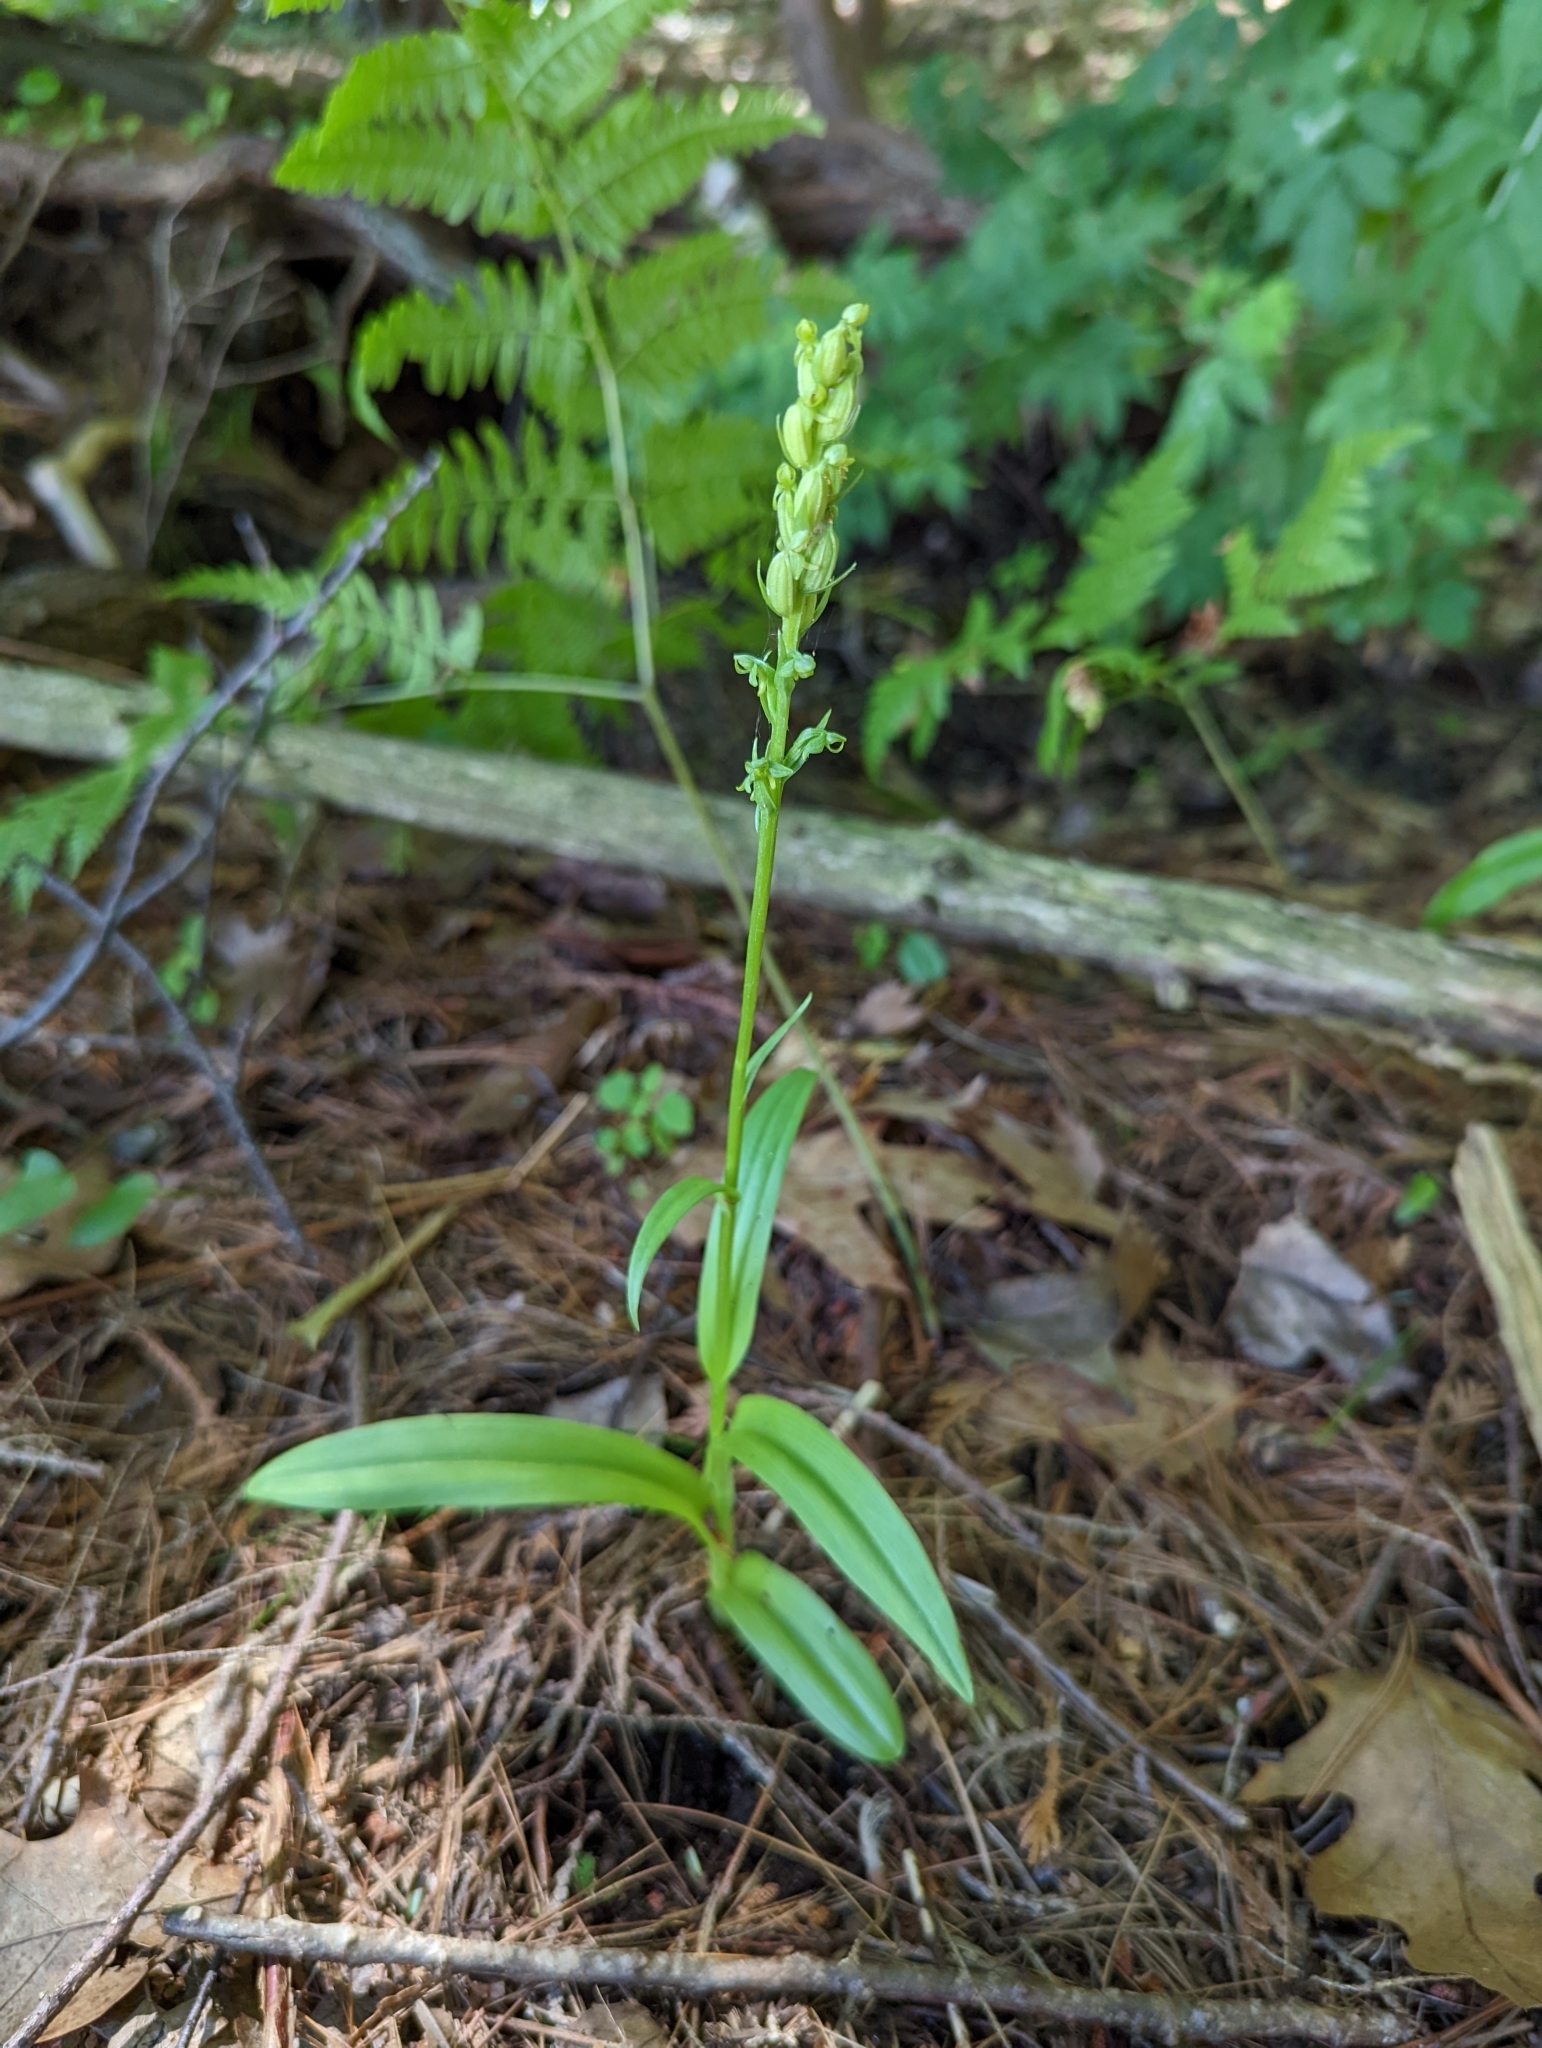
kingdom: Plantae
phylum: Tracheophyta
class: Liliopsida
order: Asparagales
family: Orchidaceae
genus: Platanthera
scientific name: Platanthera aquilonis
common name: Northern green orchid
